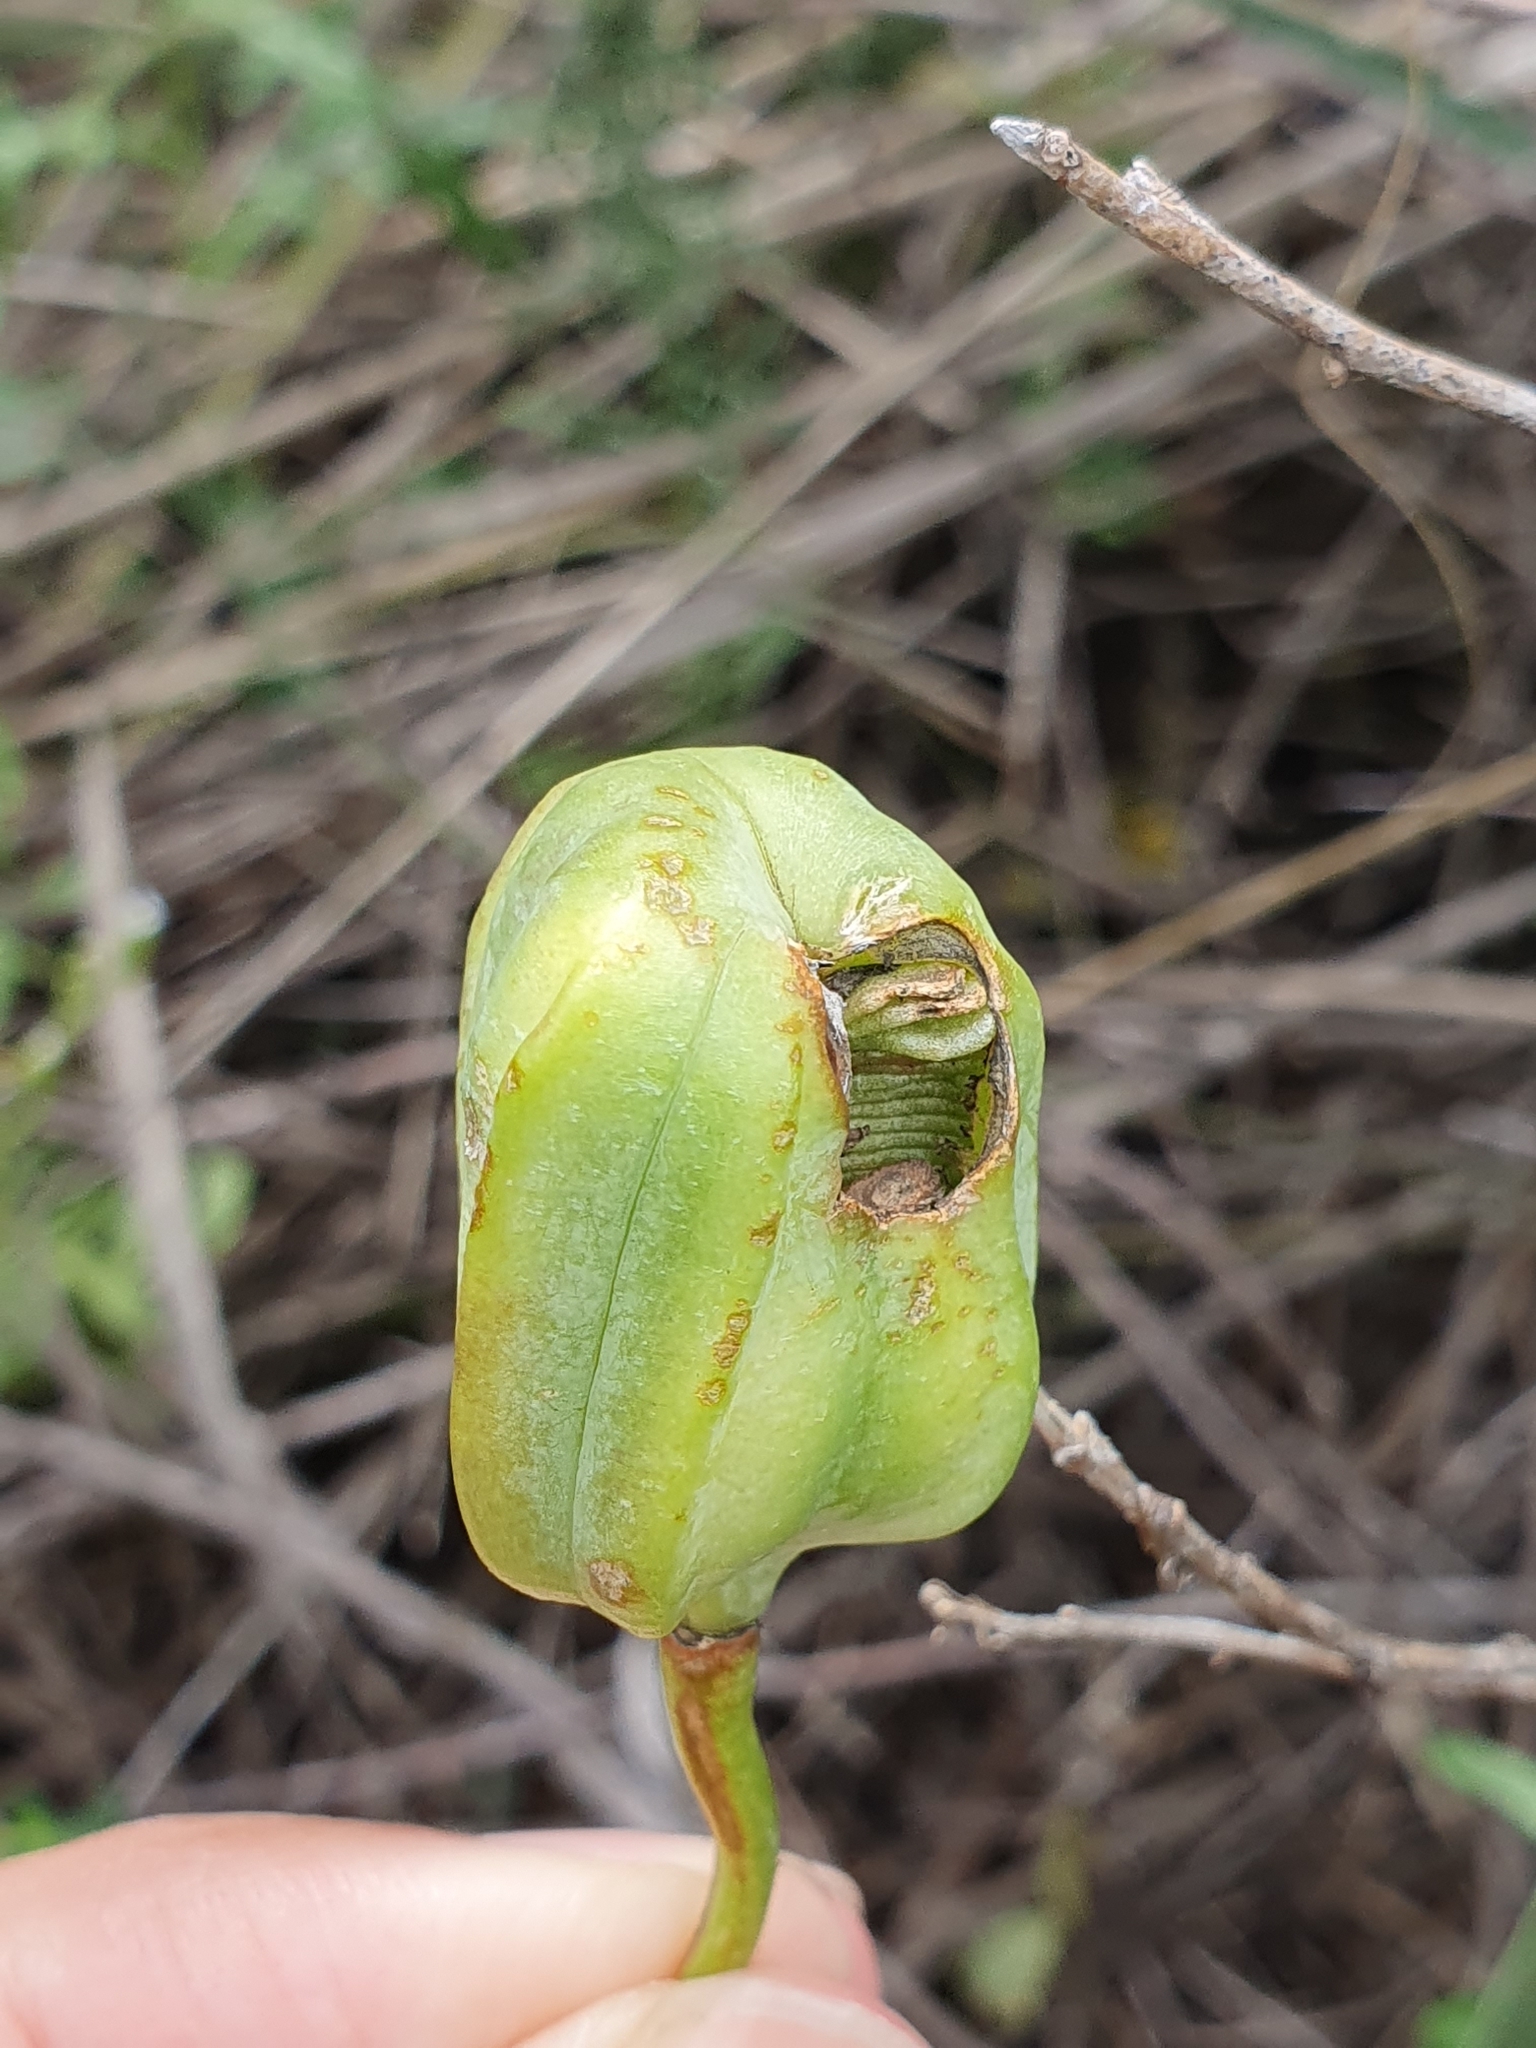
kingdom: Plantae
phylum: Tracheophyta
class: Liliopsida
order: Liliales
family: Liliaceae
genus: Fritillaria
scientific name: Fritillaria oranensis
